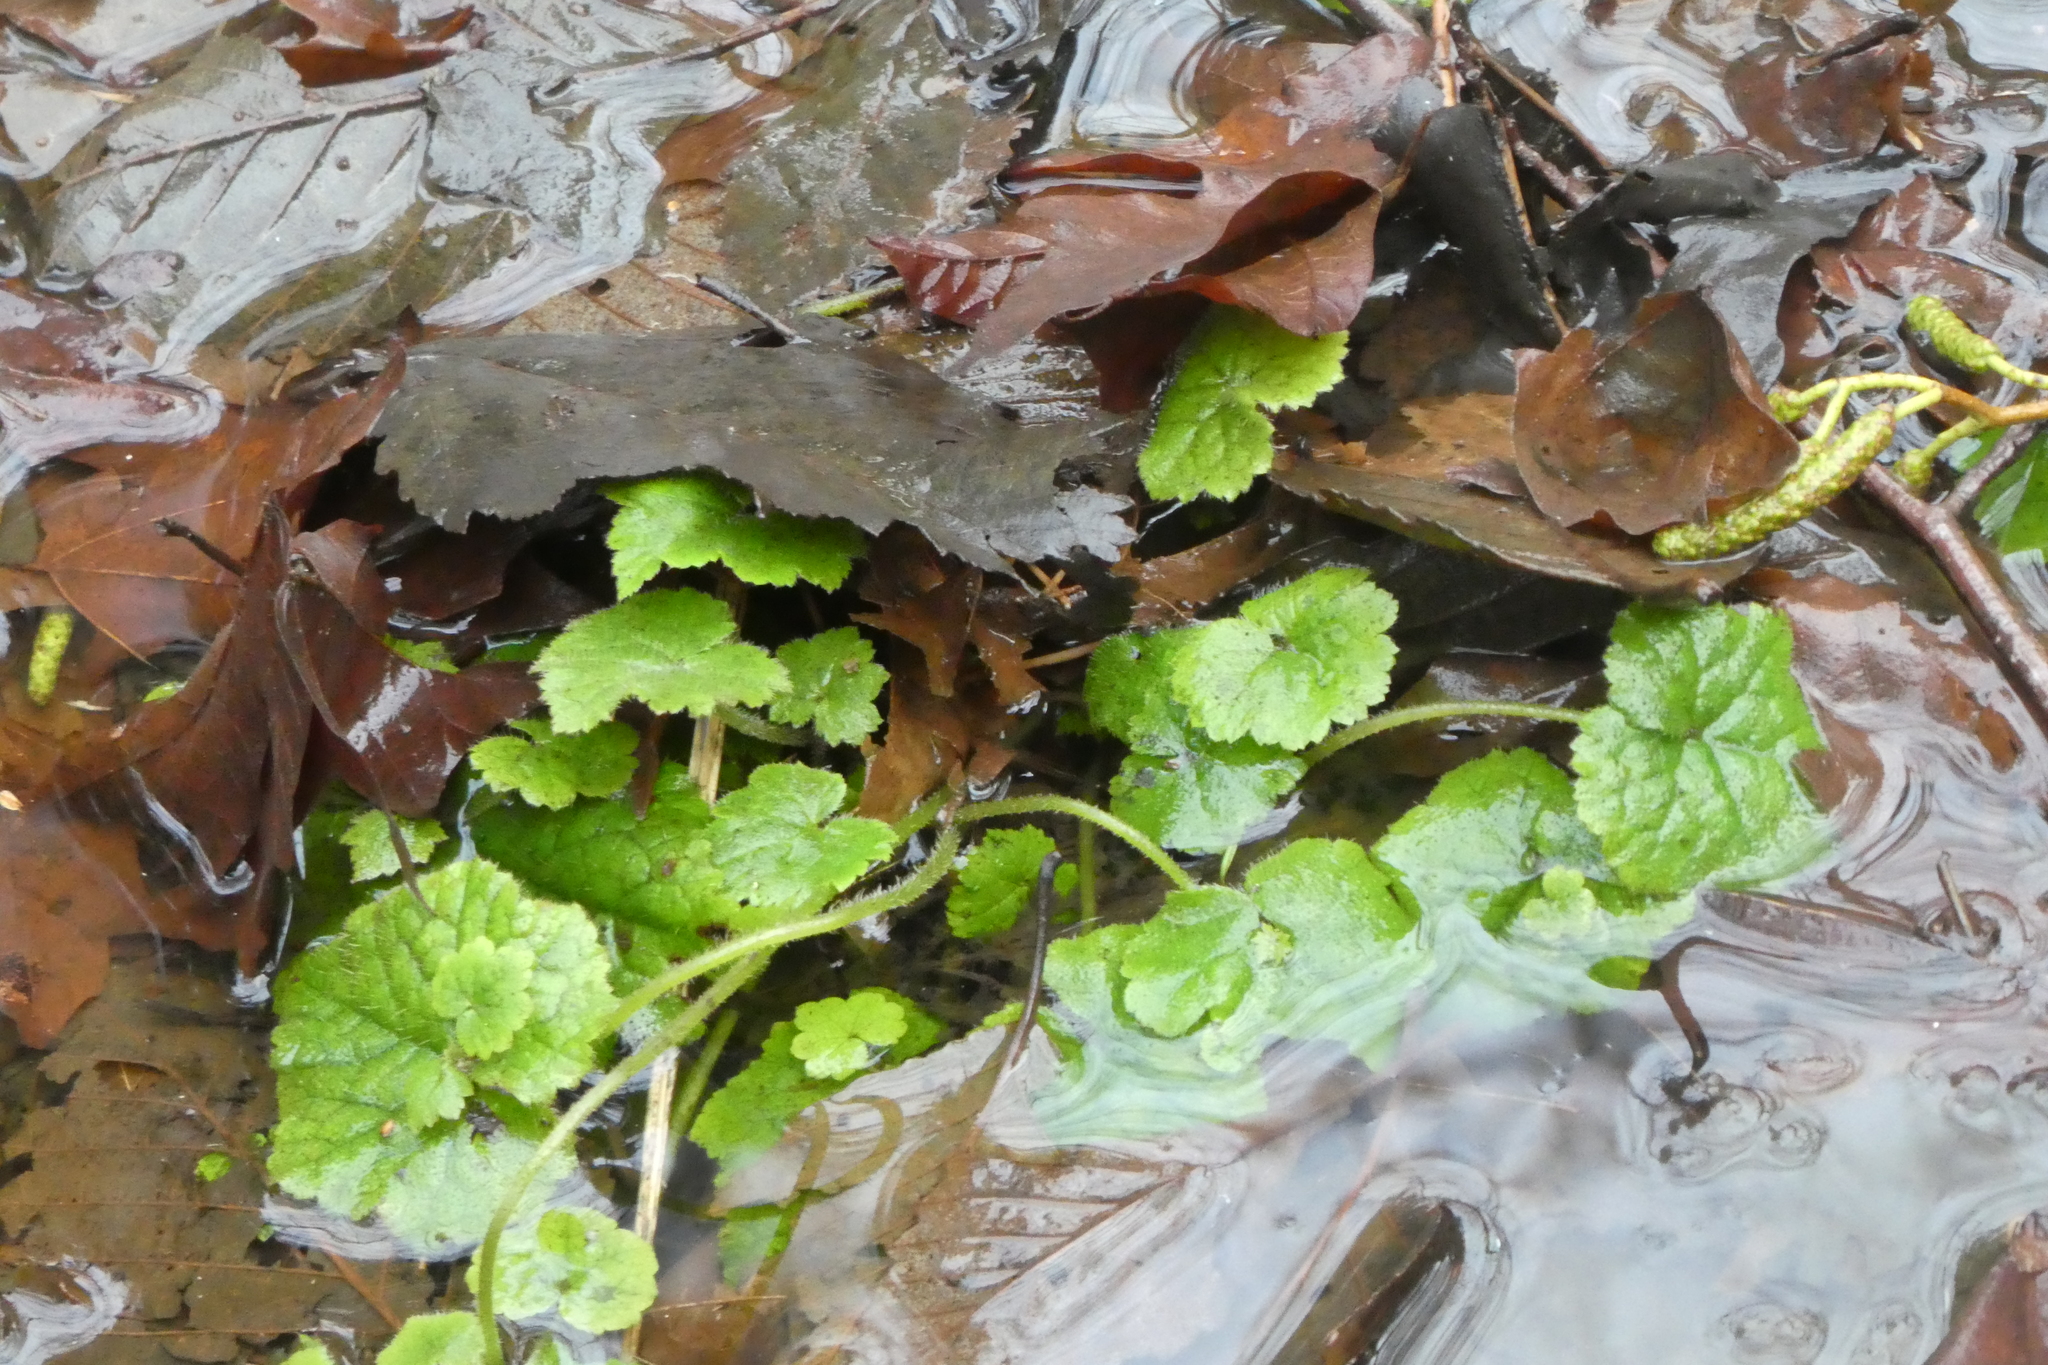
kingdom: Plantae
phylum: Tracheophyta
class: Magnoliopsida
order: Saxifragales
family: Saxifragaceae
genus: Tolmiea
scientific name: Tolmiea menziesii
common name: Pick-a-back-plant
